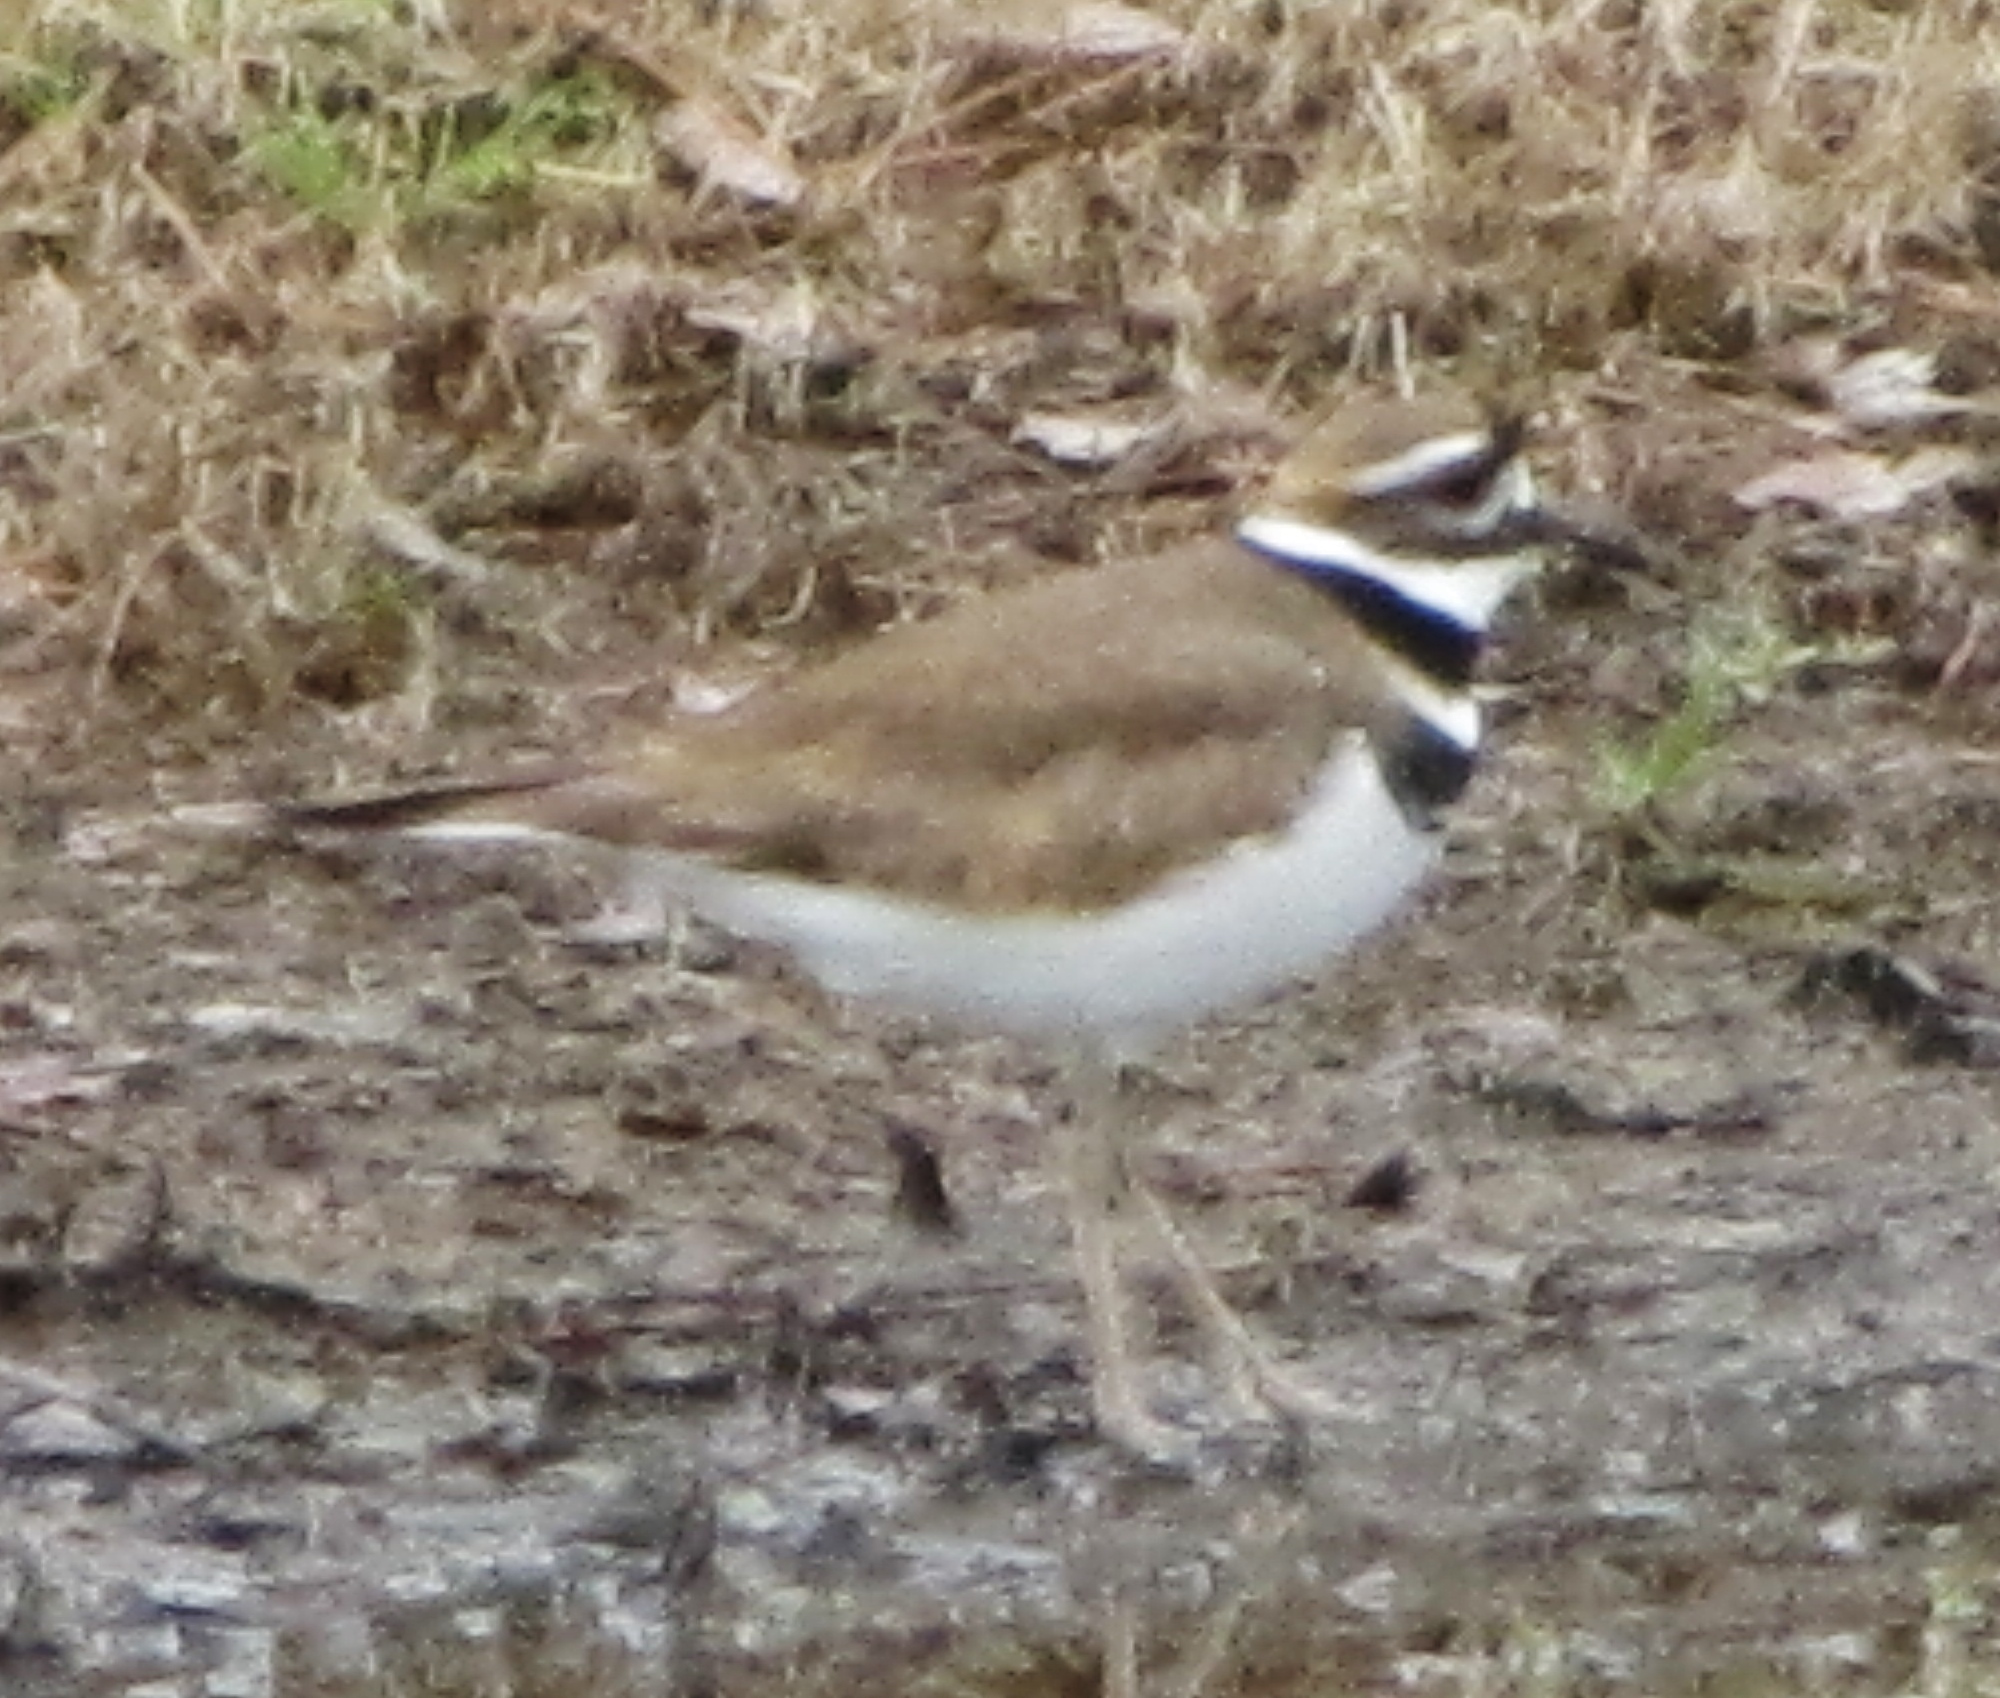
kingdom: Animalia
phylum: Chordata
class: Aves
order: Charadriiformes
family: Charadriidae
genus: Charadrius
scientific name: Charadrius vociferus
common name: Killdeer
